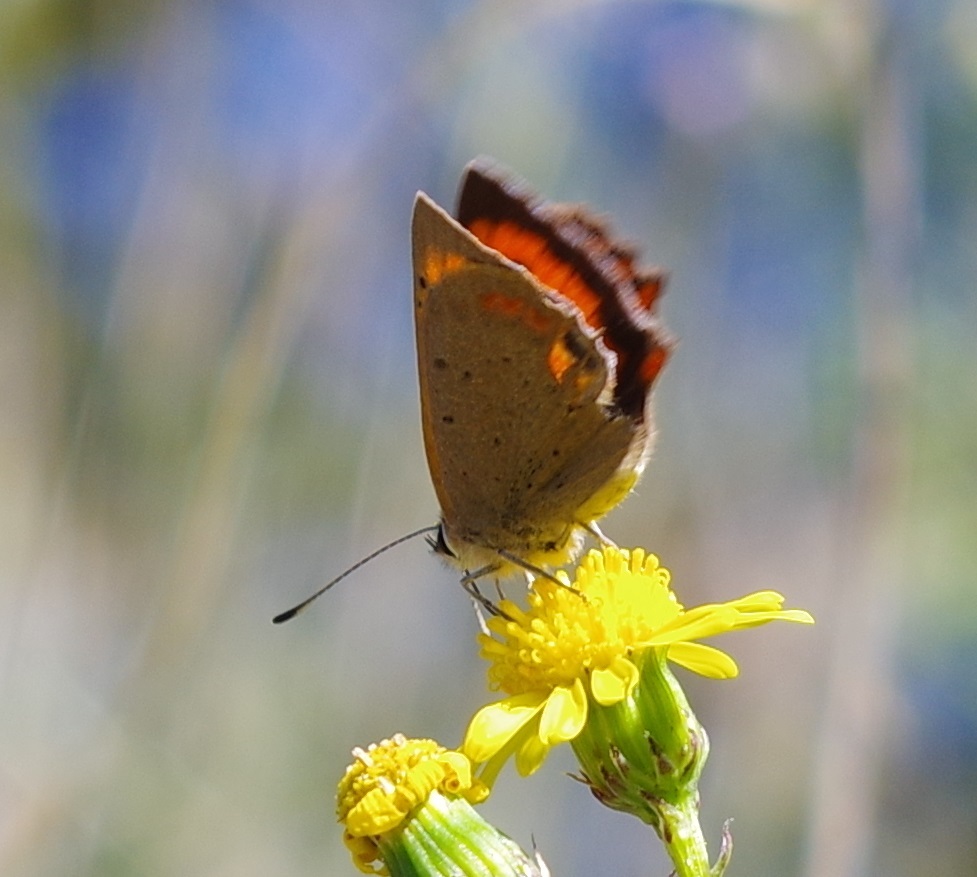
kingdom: Animalia
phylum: Arthropoda
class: Insecta
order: Lepidoptera
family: Lycaenidae
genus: Lycaena
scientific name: Lycaena phlaeas
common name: Small copper
